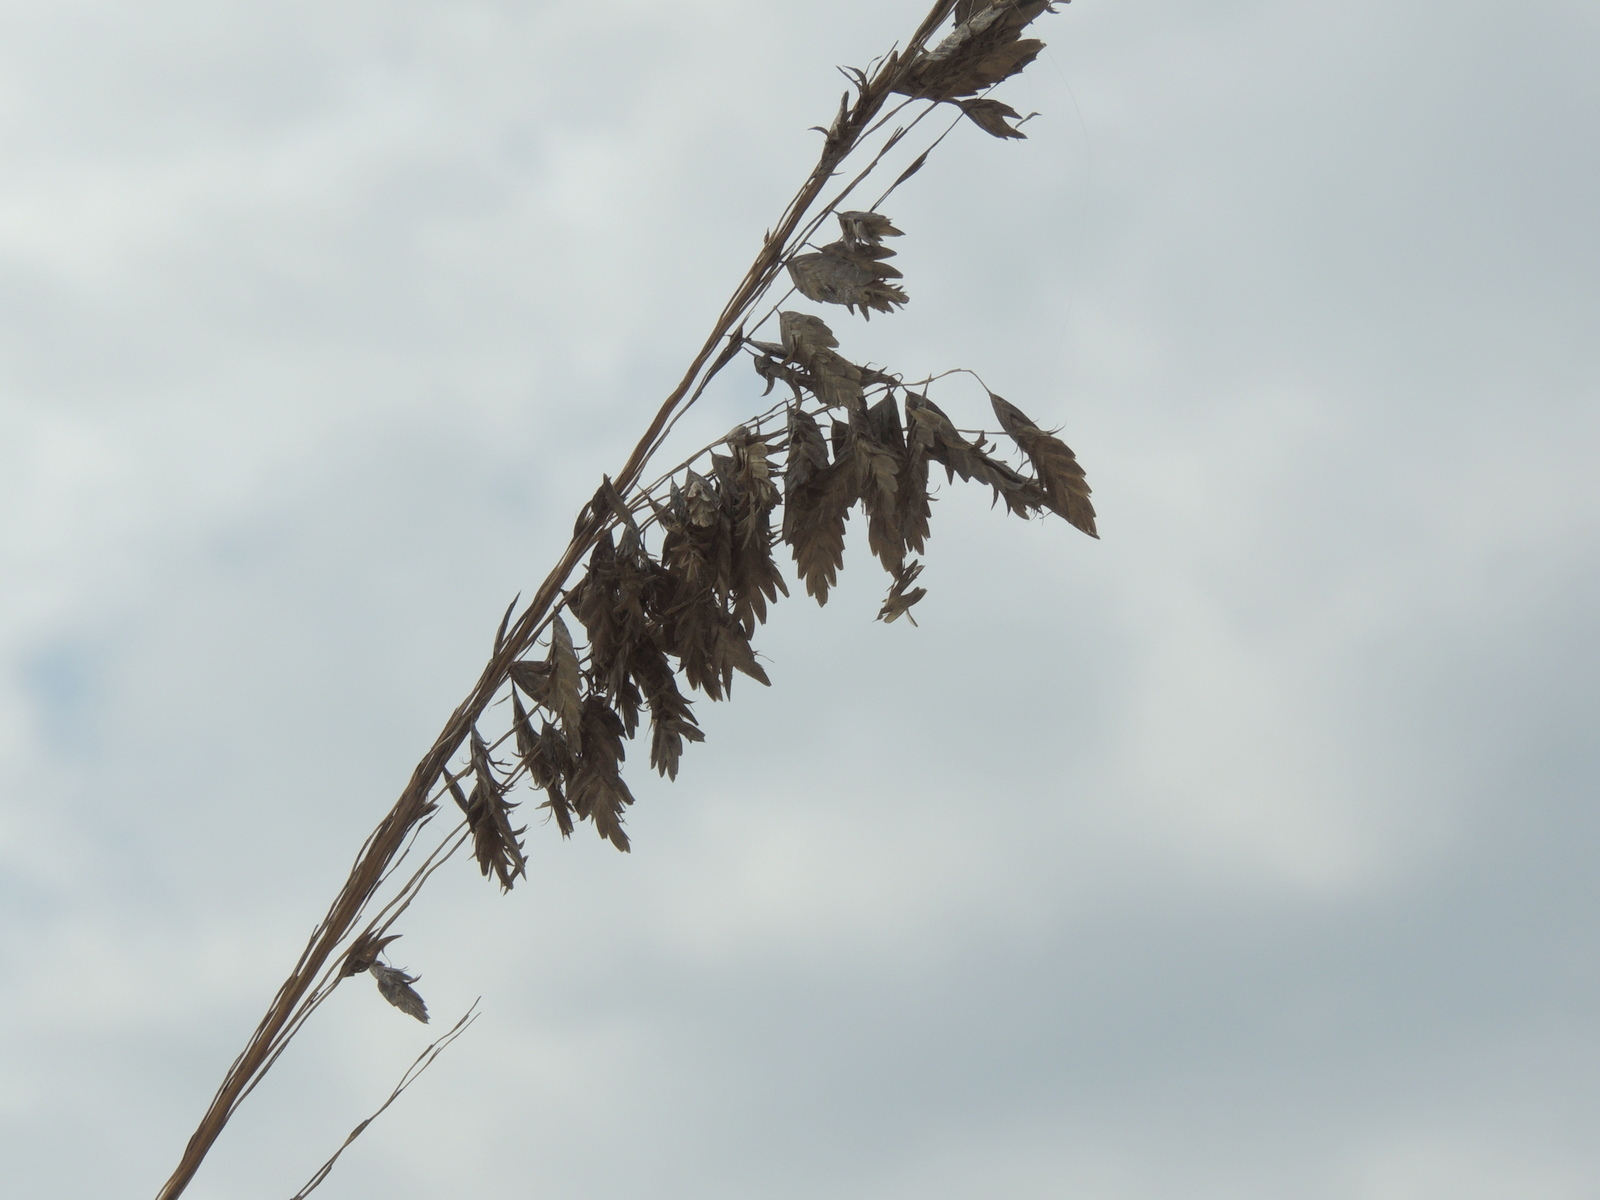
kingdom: Plantae
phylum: Tracheophyta
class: Liliopsida
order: Poales
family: Poaceae
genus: Uniola
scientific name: Uniola paniculata
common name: Seaside-oats
